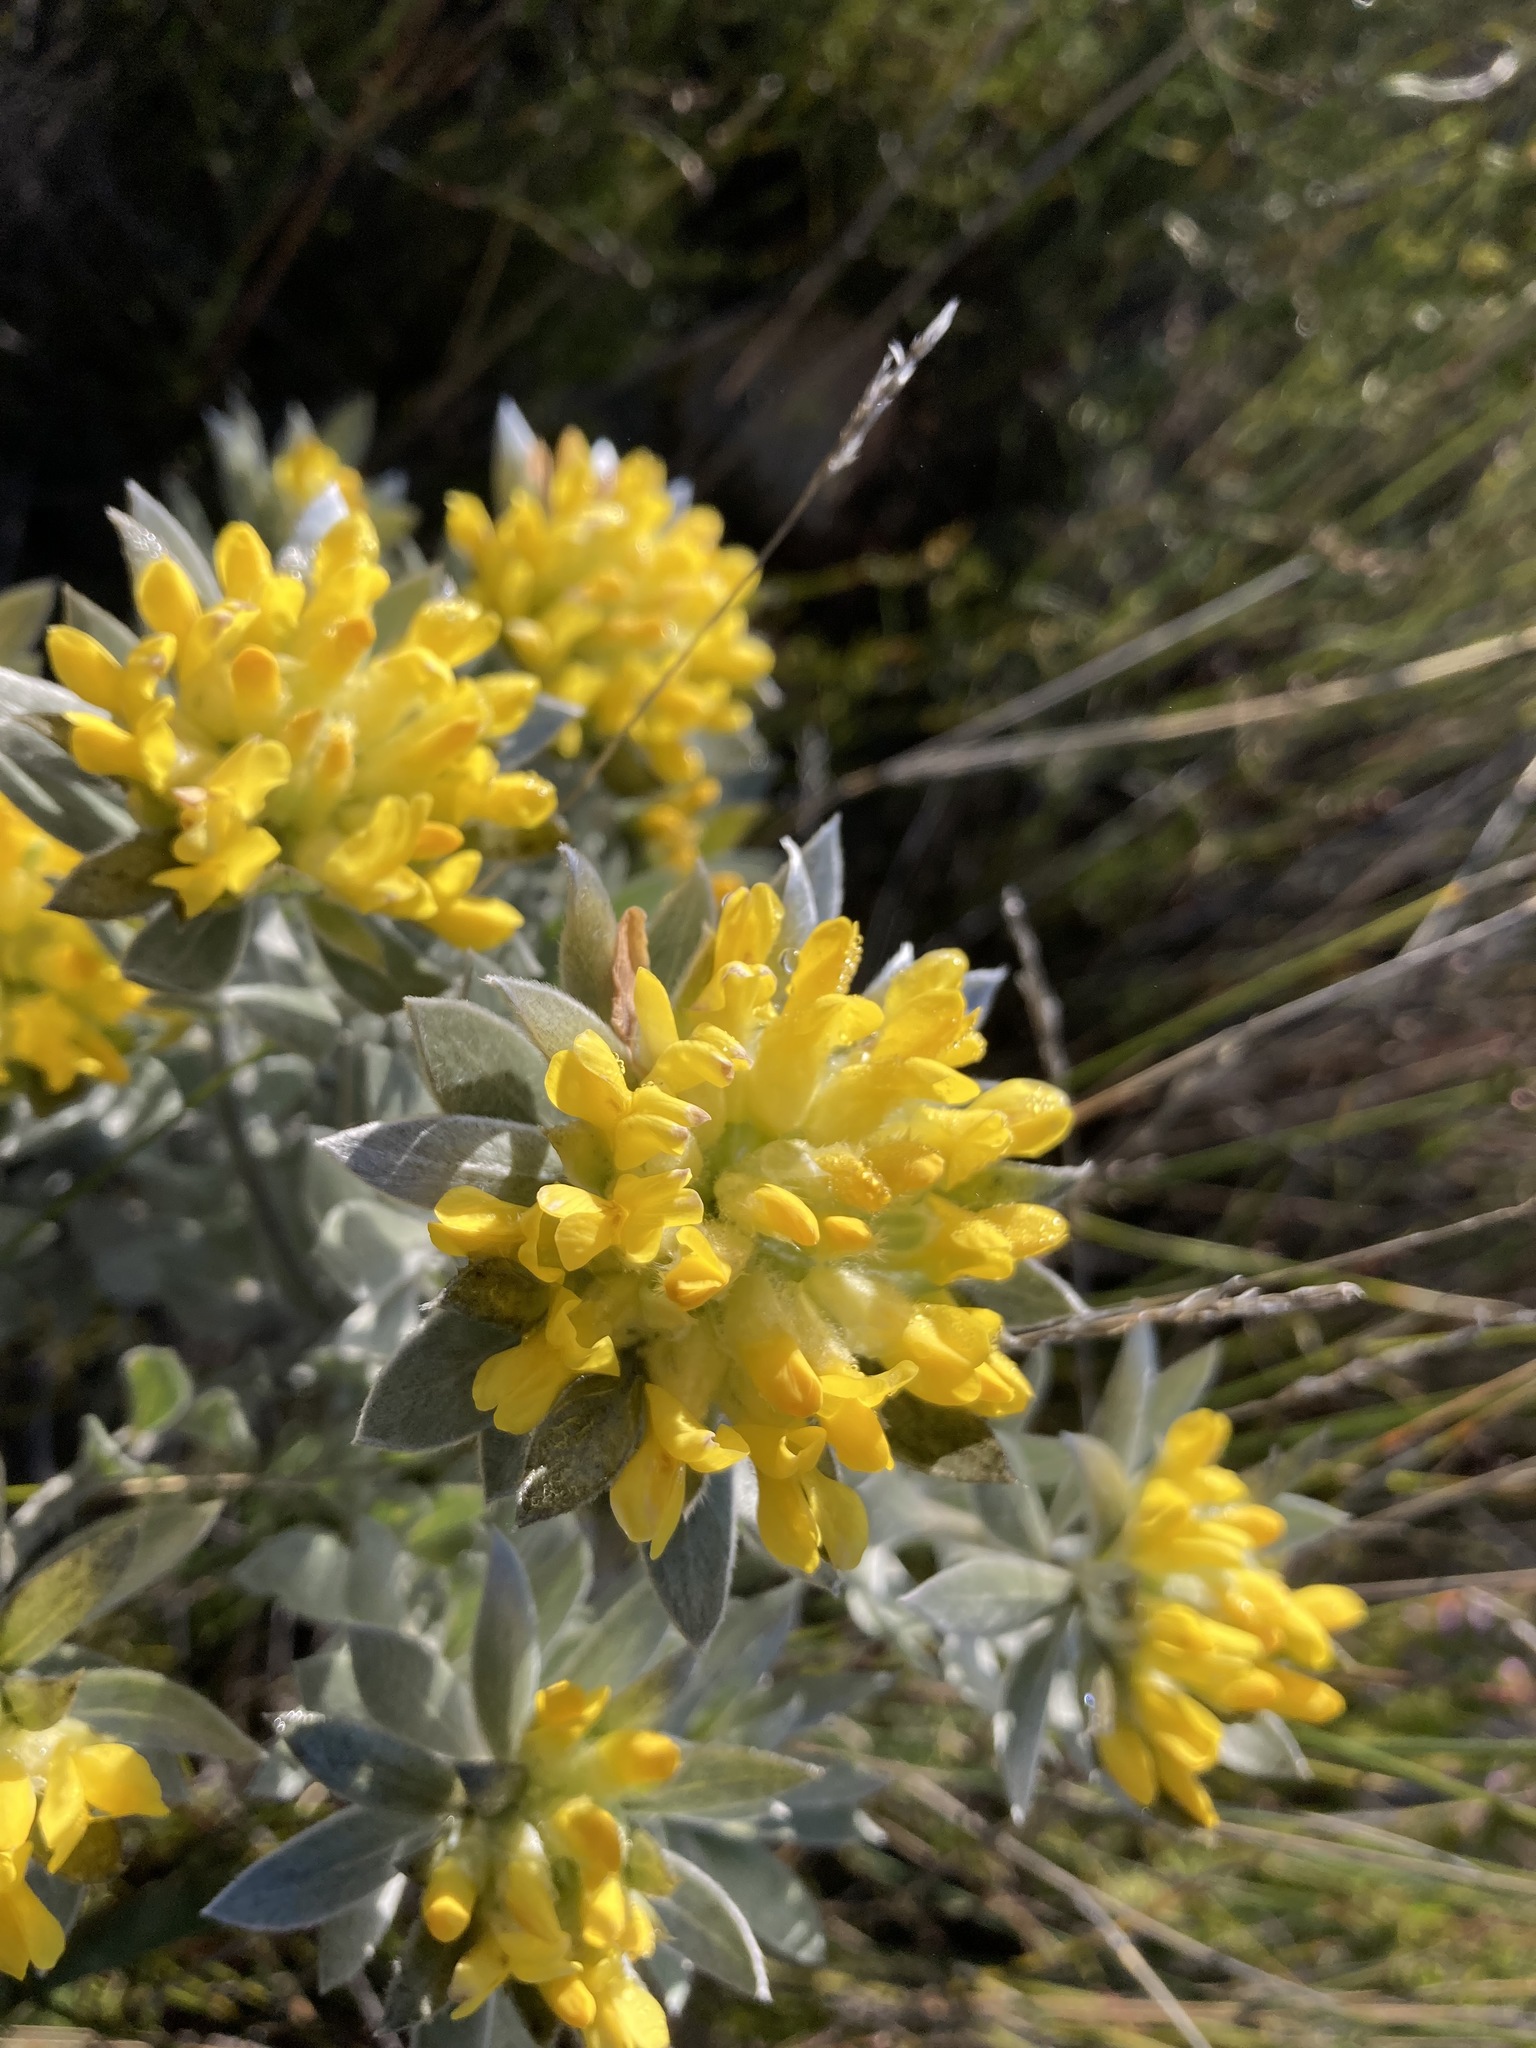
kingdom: Plantae
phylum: Tracheophyta
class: Magnoliopsida
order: Fabales
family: Fabaceae
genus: Xiphotheca
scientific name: Xiphotheca fruticosa
